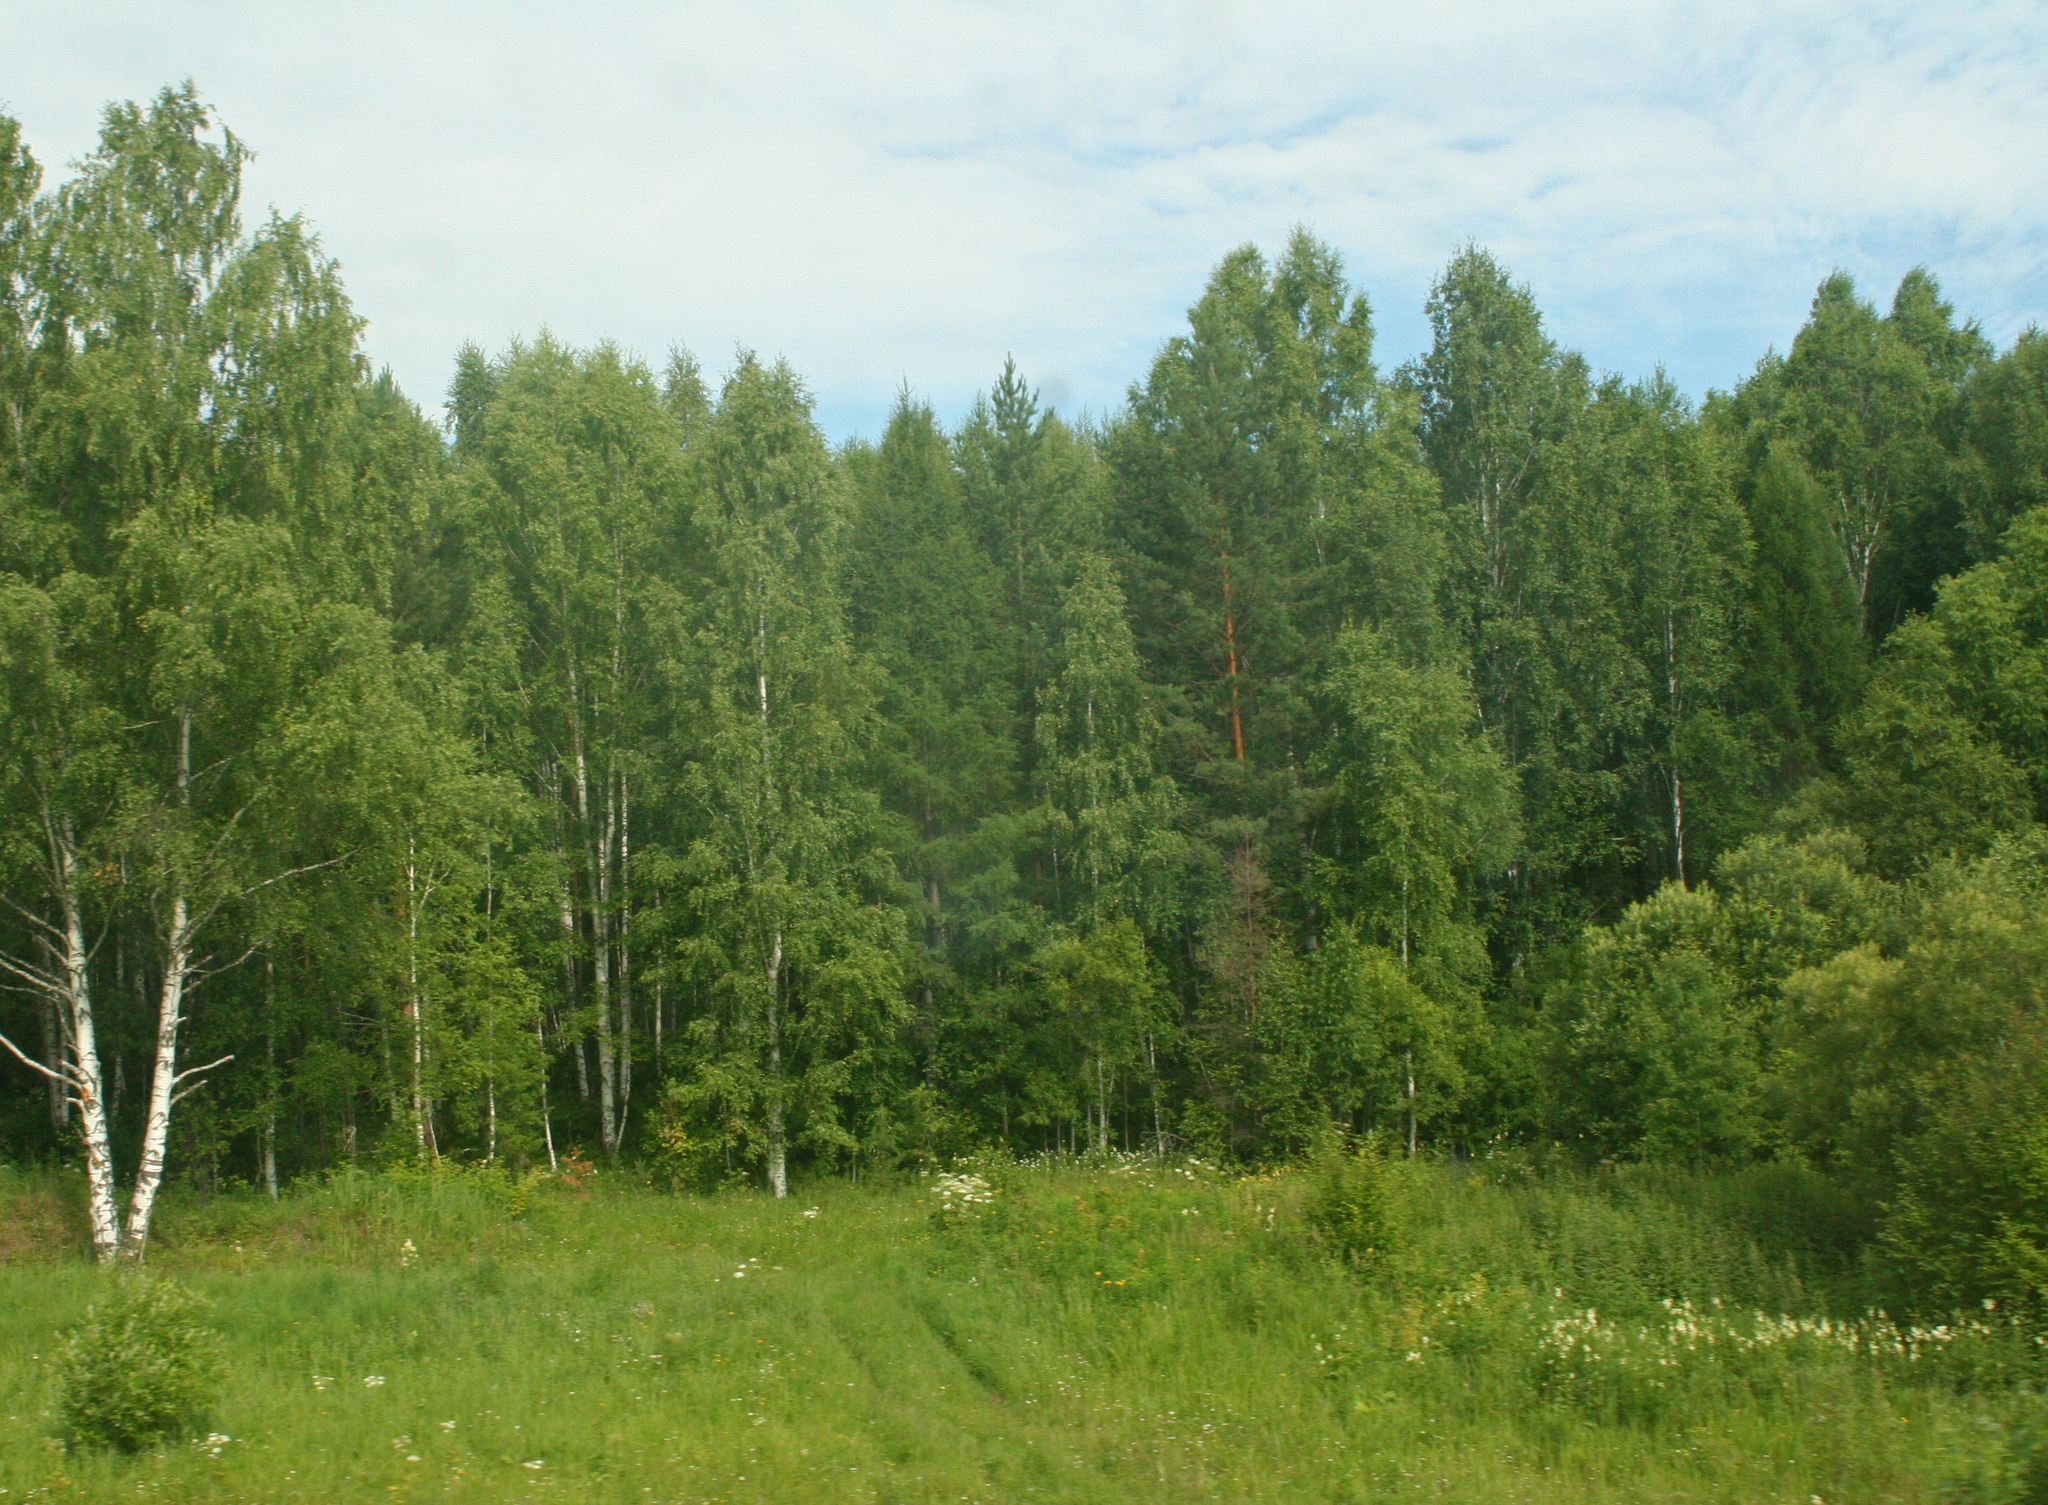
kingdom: Plantae
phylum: Tracheophyta
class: Pinopsida
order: Pinales
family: Pinaceae
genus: Pinus
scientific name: Pinus sylvestris
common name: Scots pine
